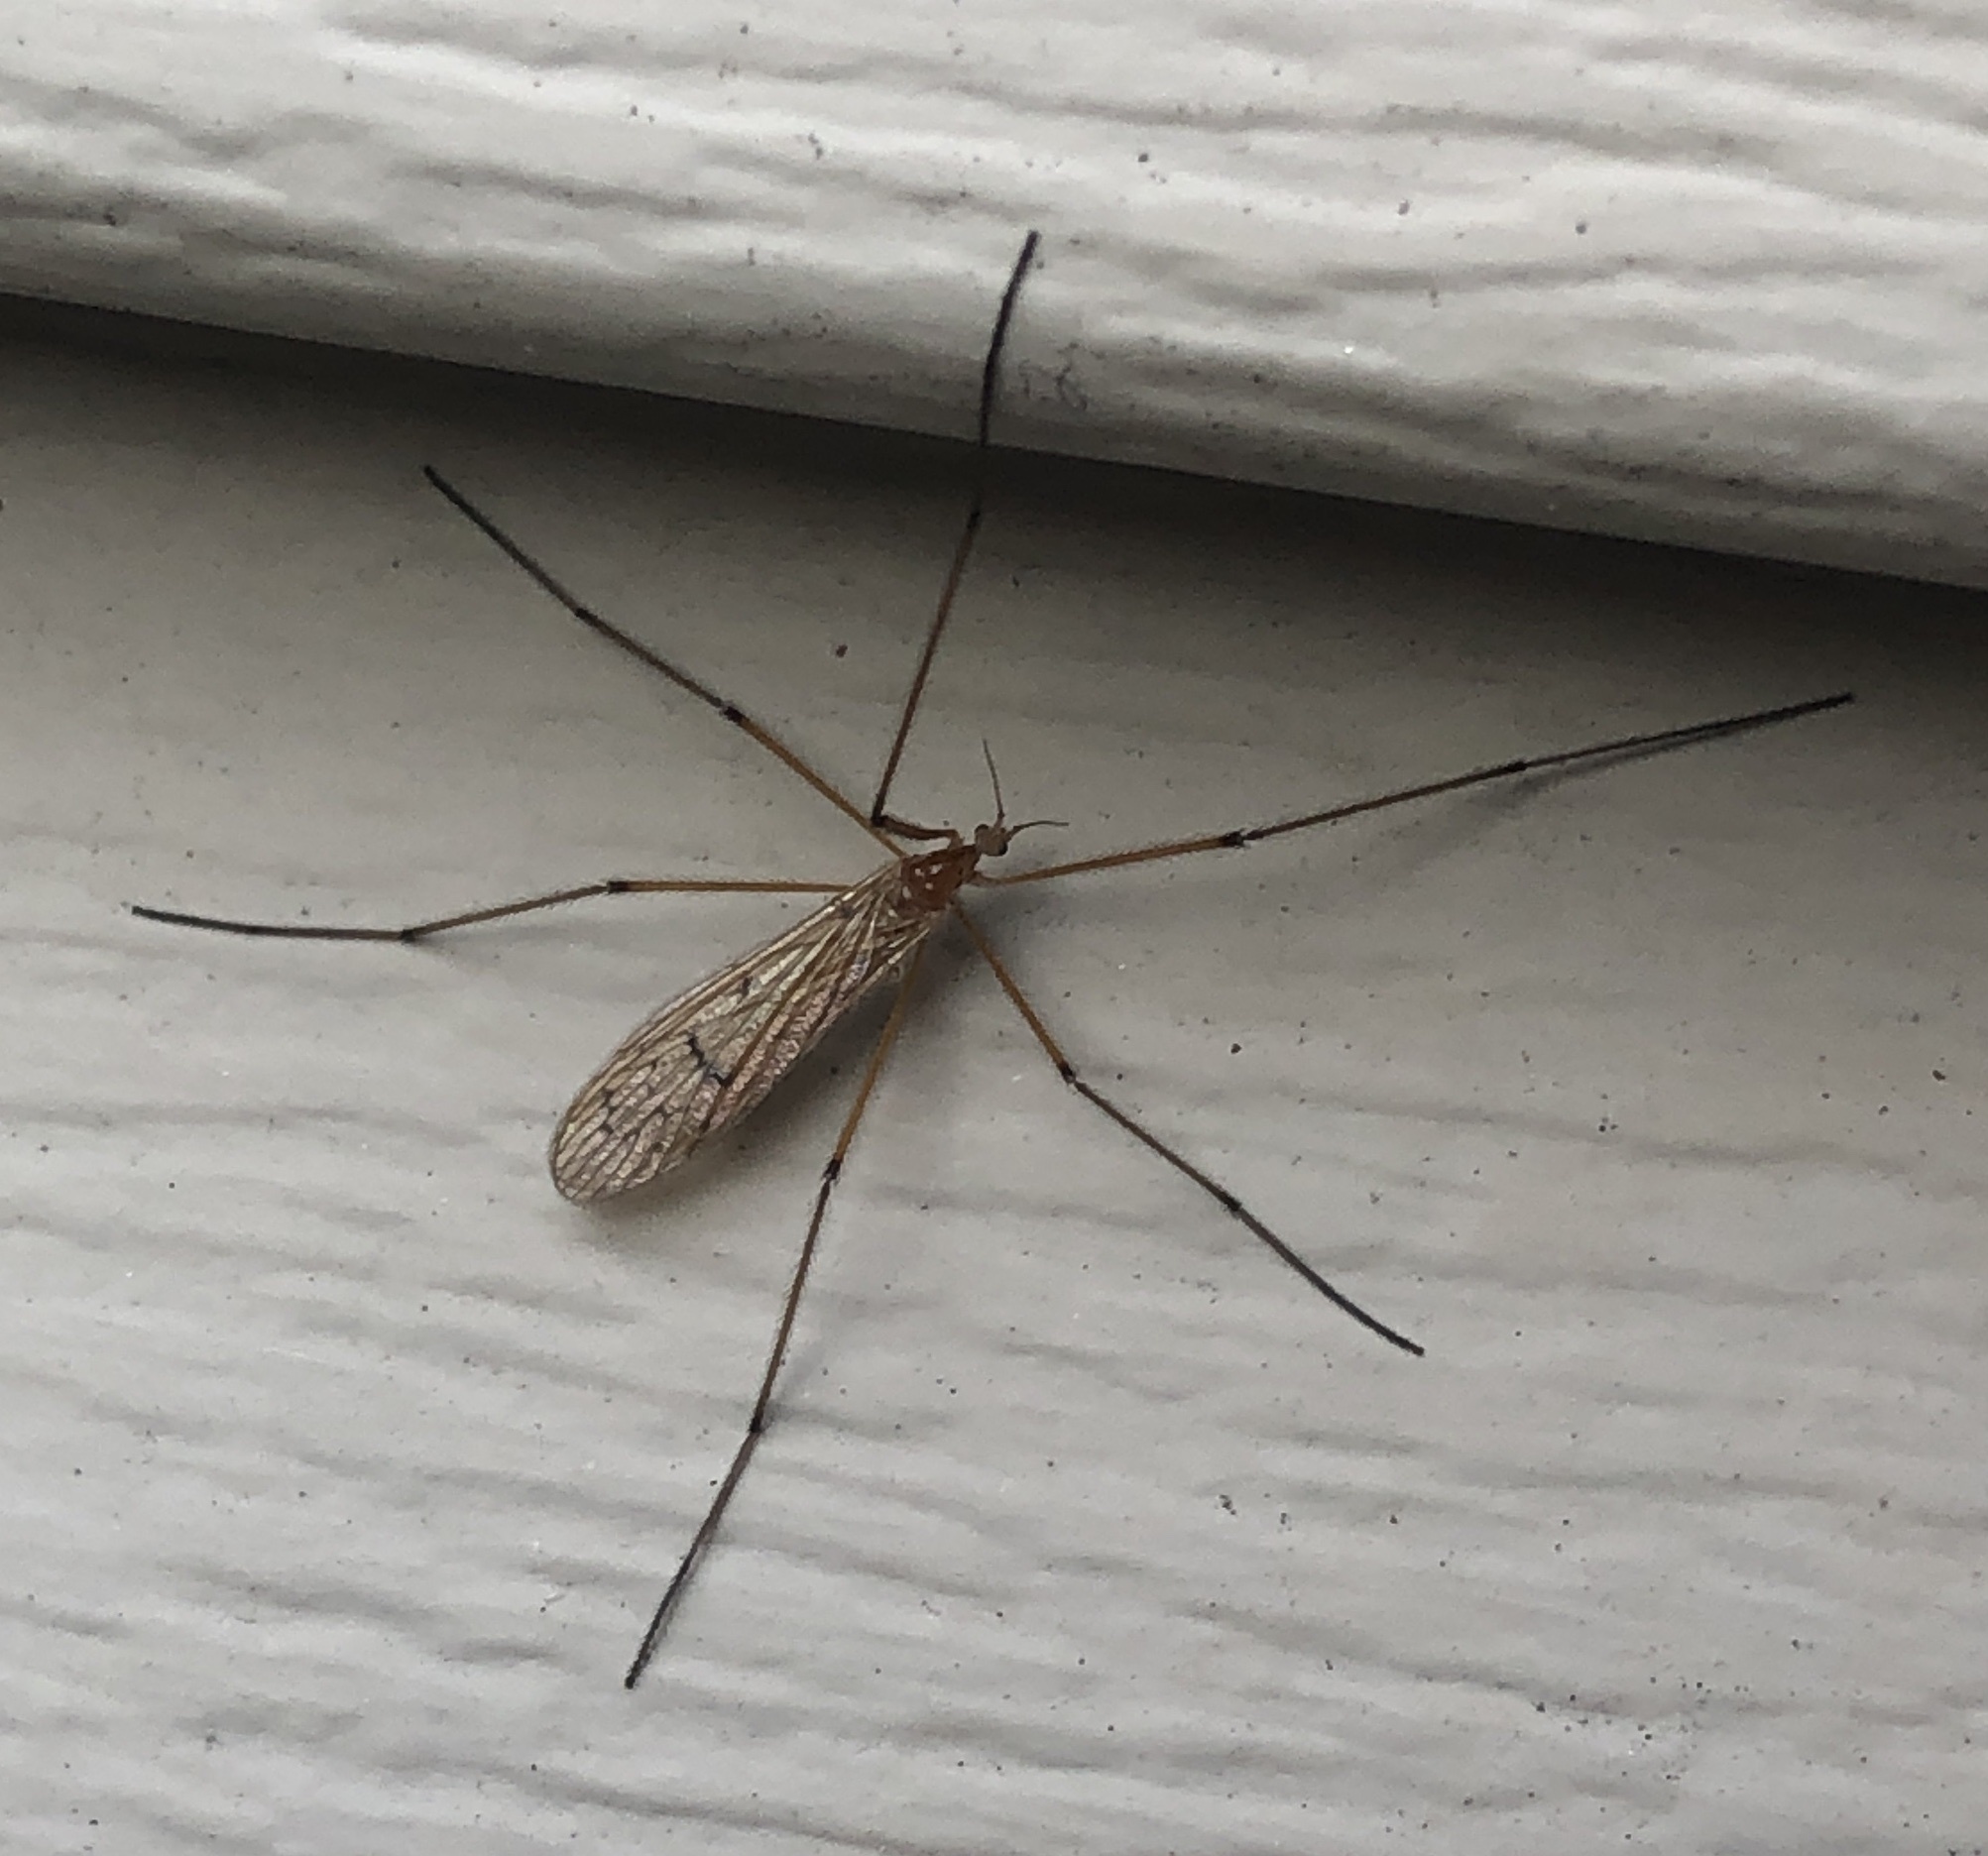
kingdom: Animalia
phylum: Arthropoda
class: Insecta
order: Diptera
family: Limoniidae
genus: Cladura
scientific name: Cladura flavoferruginea
